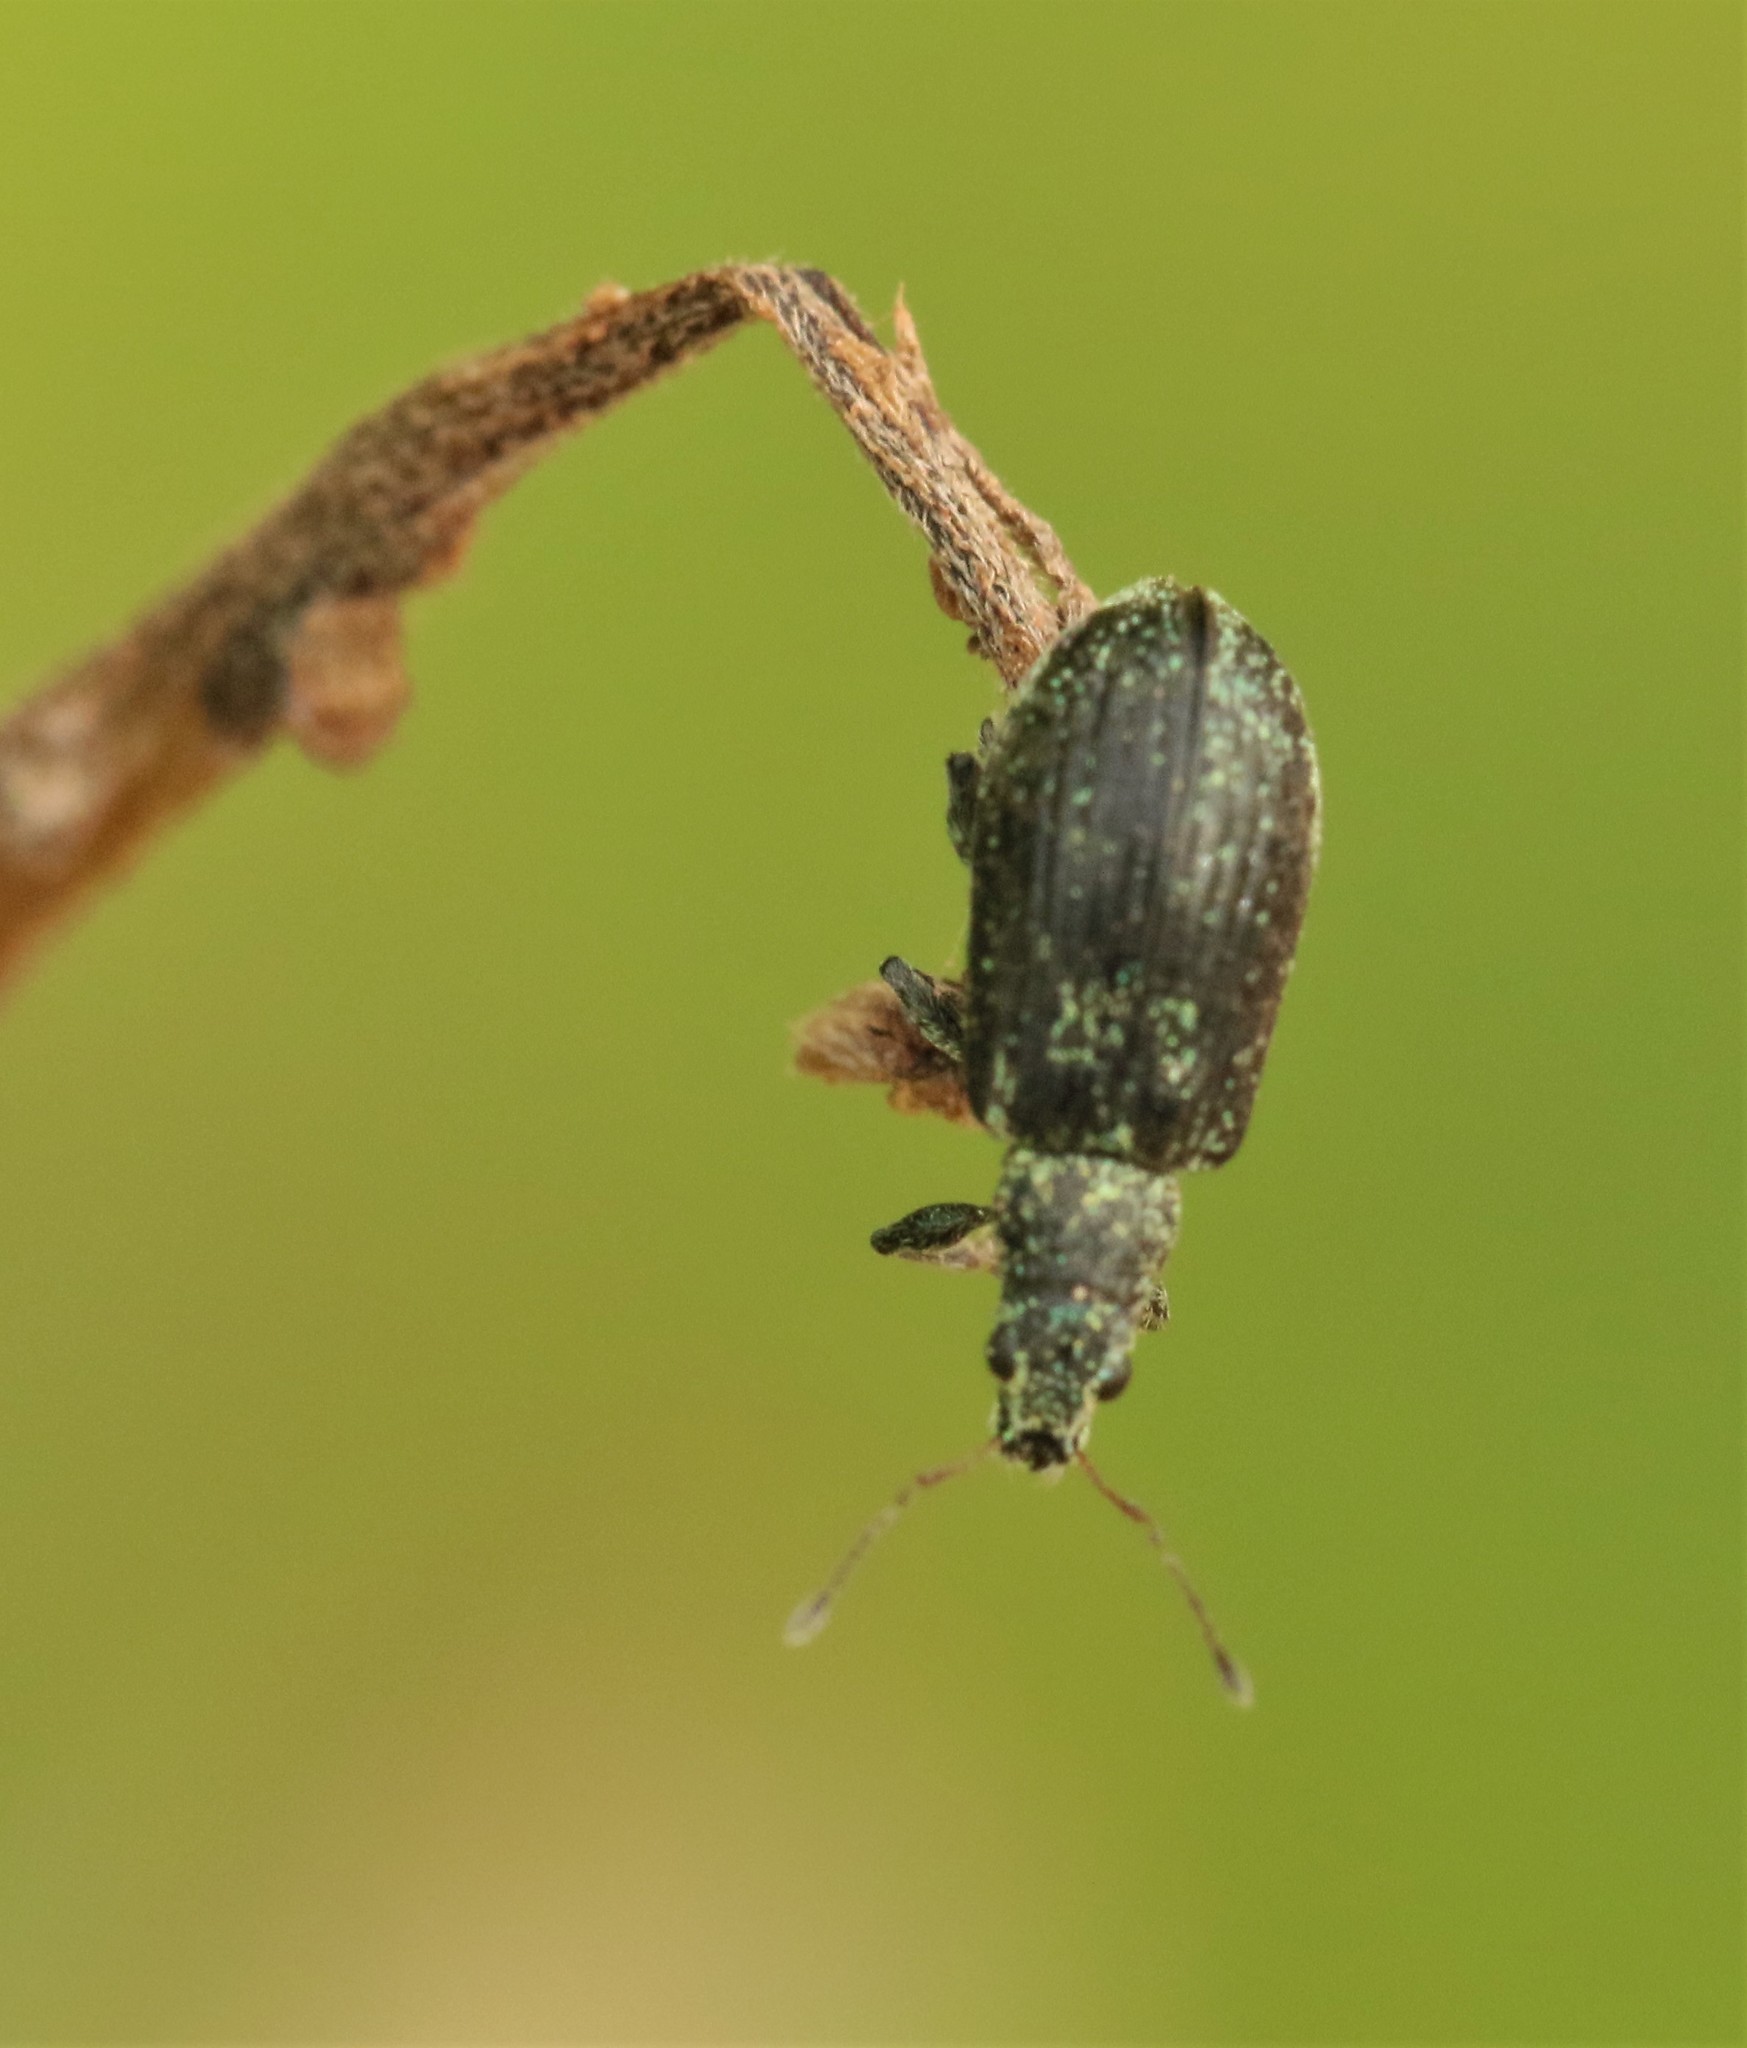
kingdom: Animalia
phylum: Arthropoda
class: Insecta
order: Coleoptera
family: Curculionidae
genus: Polydrusus
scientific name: Polydrusus cervinus
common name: Weevil
